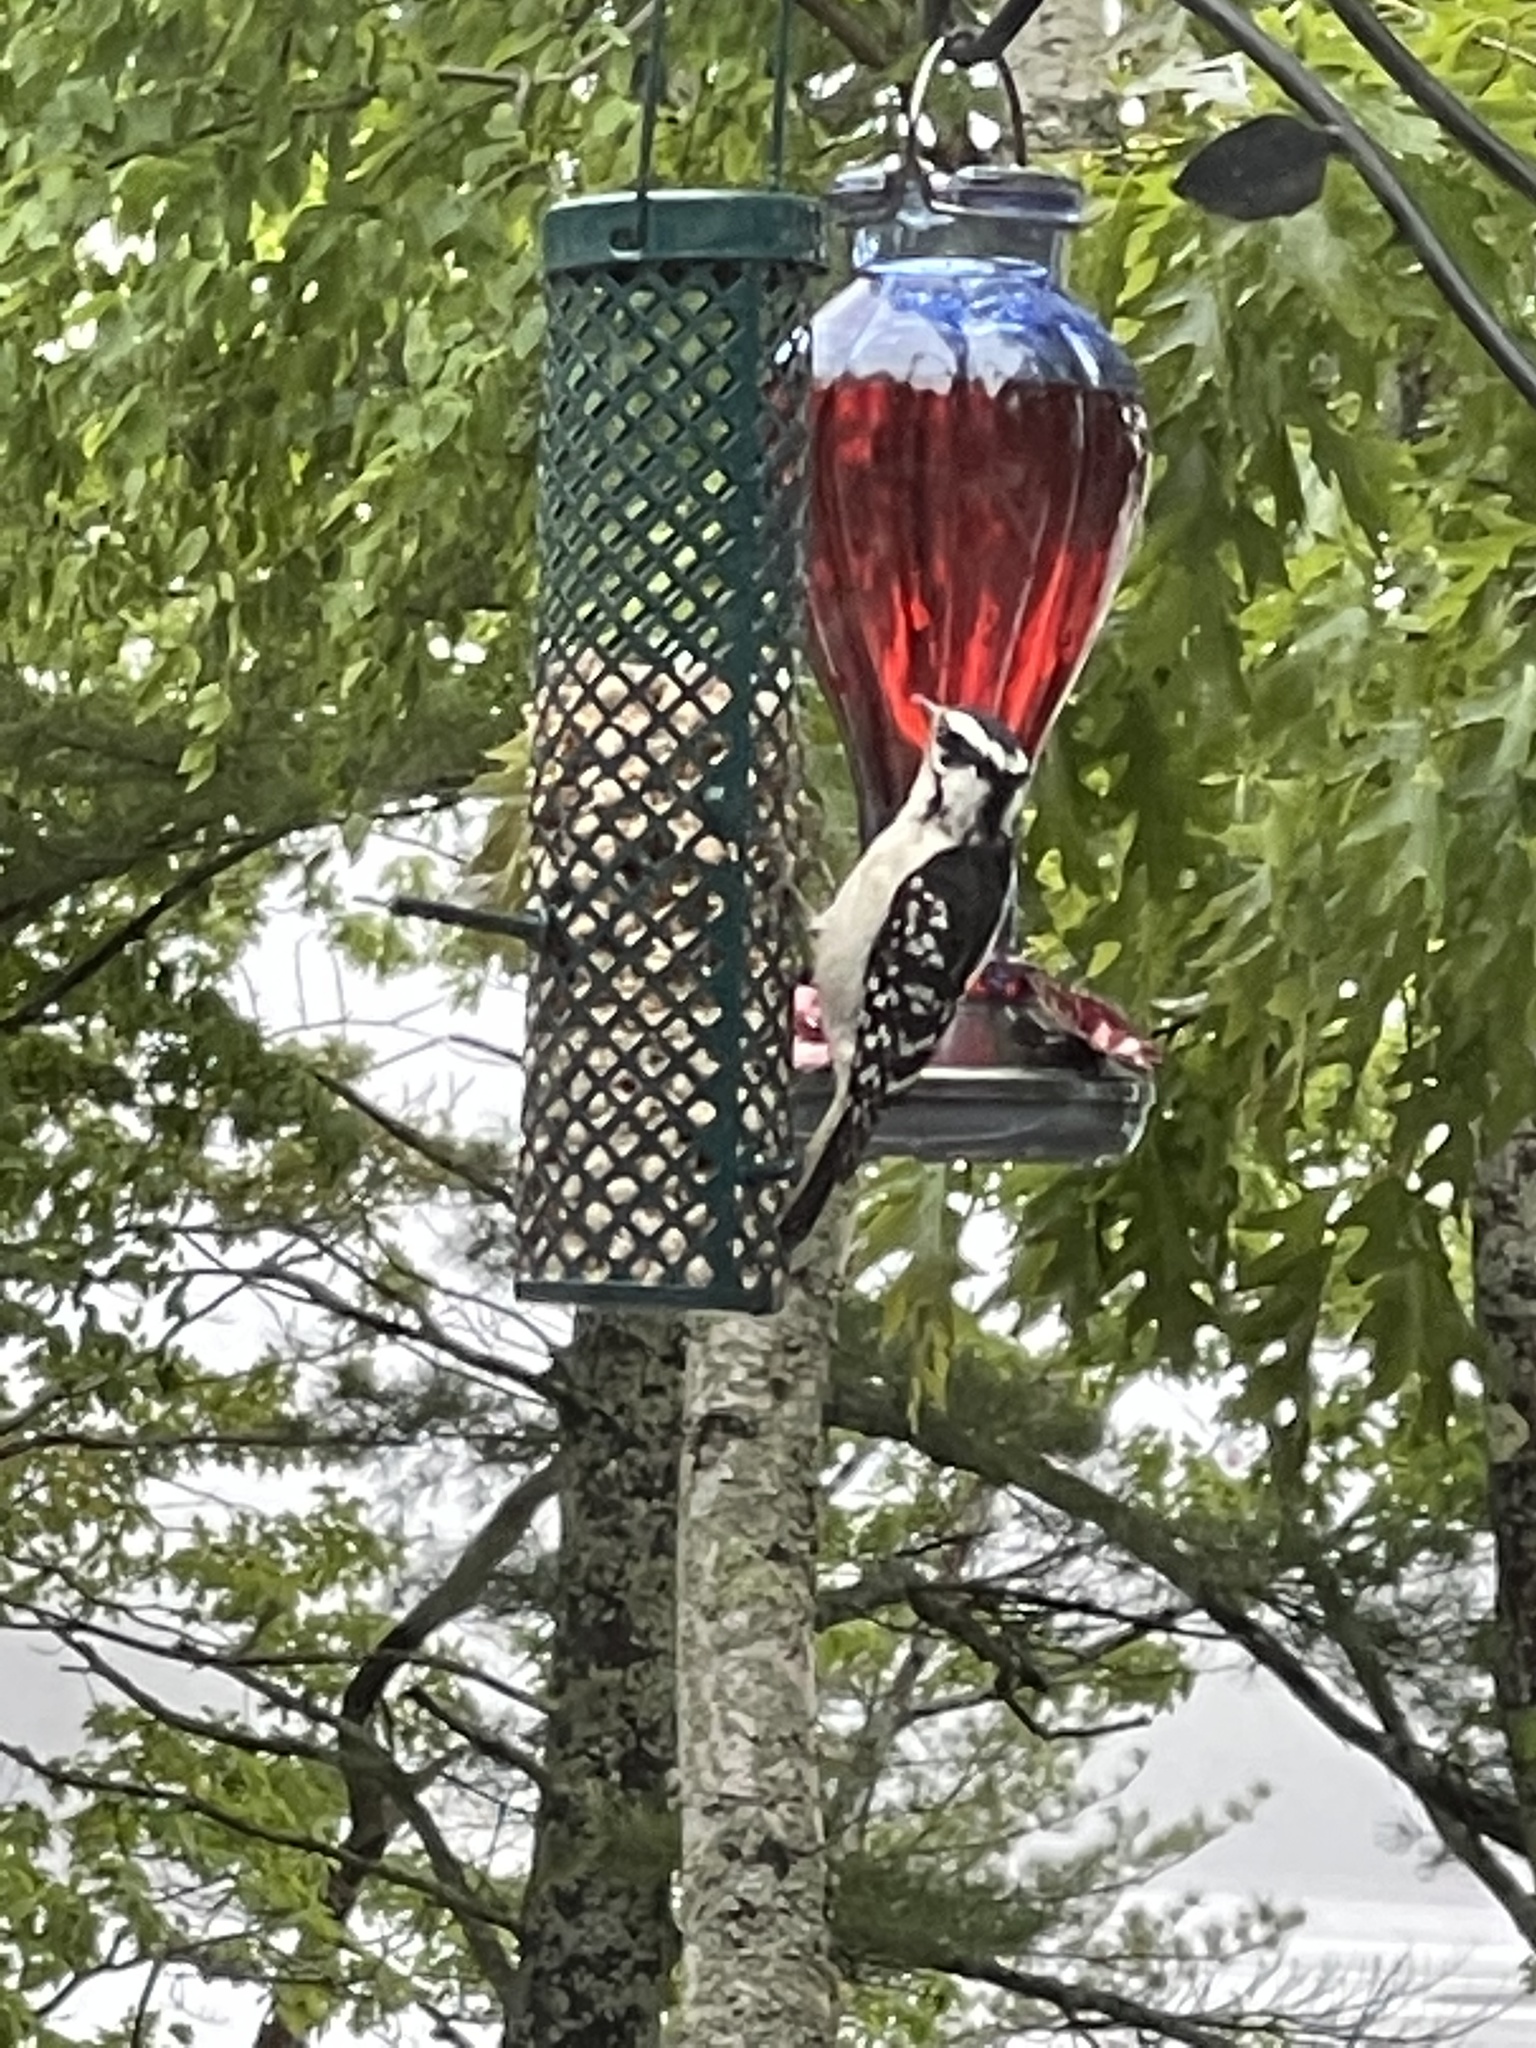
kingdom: Animalia
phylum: Chordata
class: Aves
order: Piciformes
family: Picidae
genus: Dryobates
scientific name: Dryobates pubescens
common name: Downy woodpecker
